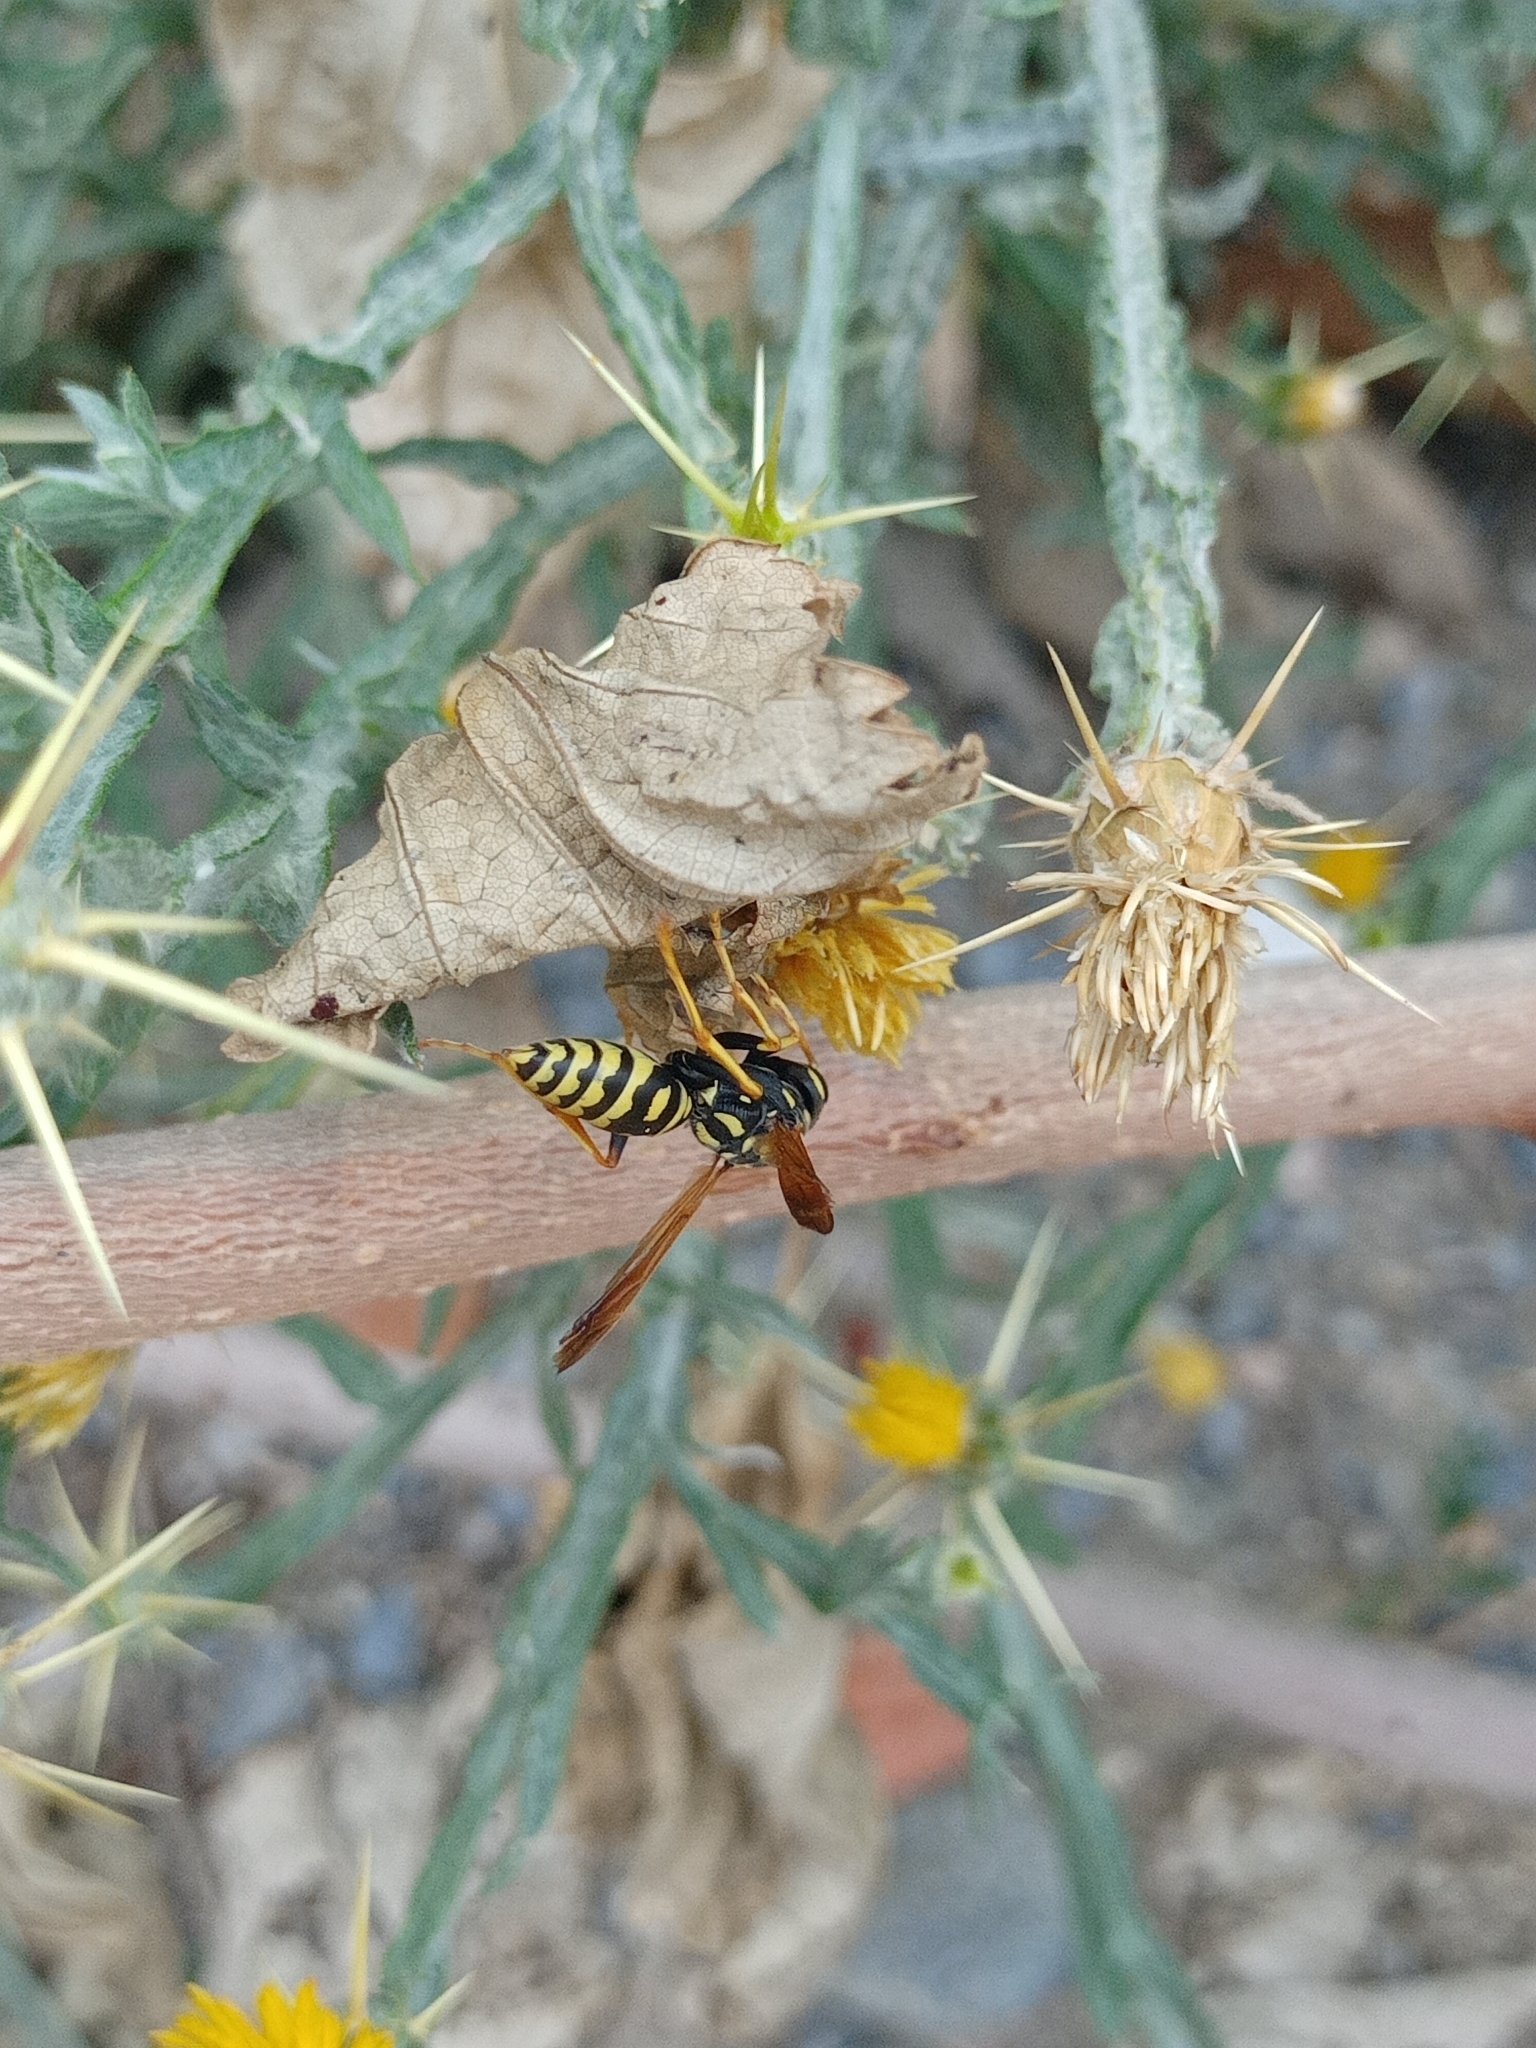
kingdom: Animalia
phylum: Arthropoda
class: Insecta
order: Hymenoptera
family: Eumenidae
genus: Polistes
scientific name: Polistes dominula
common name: Paper wasp
